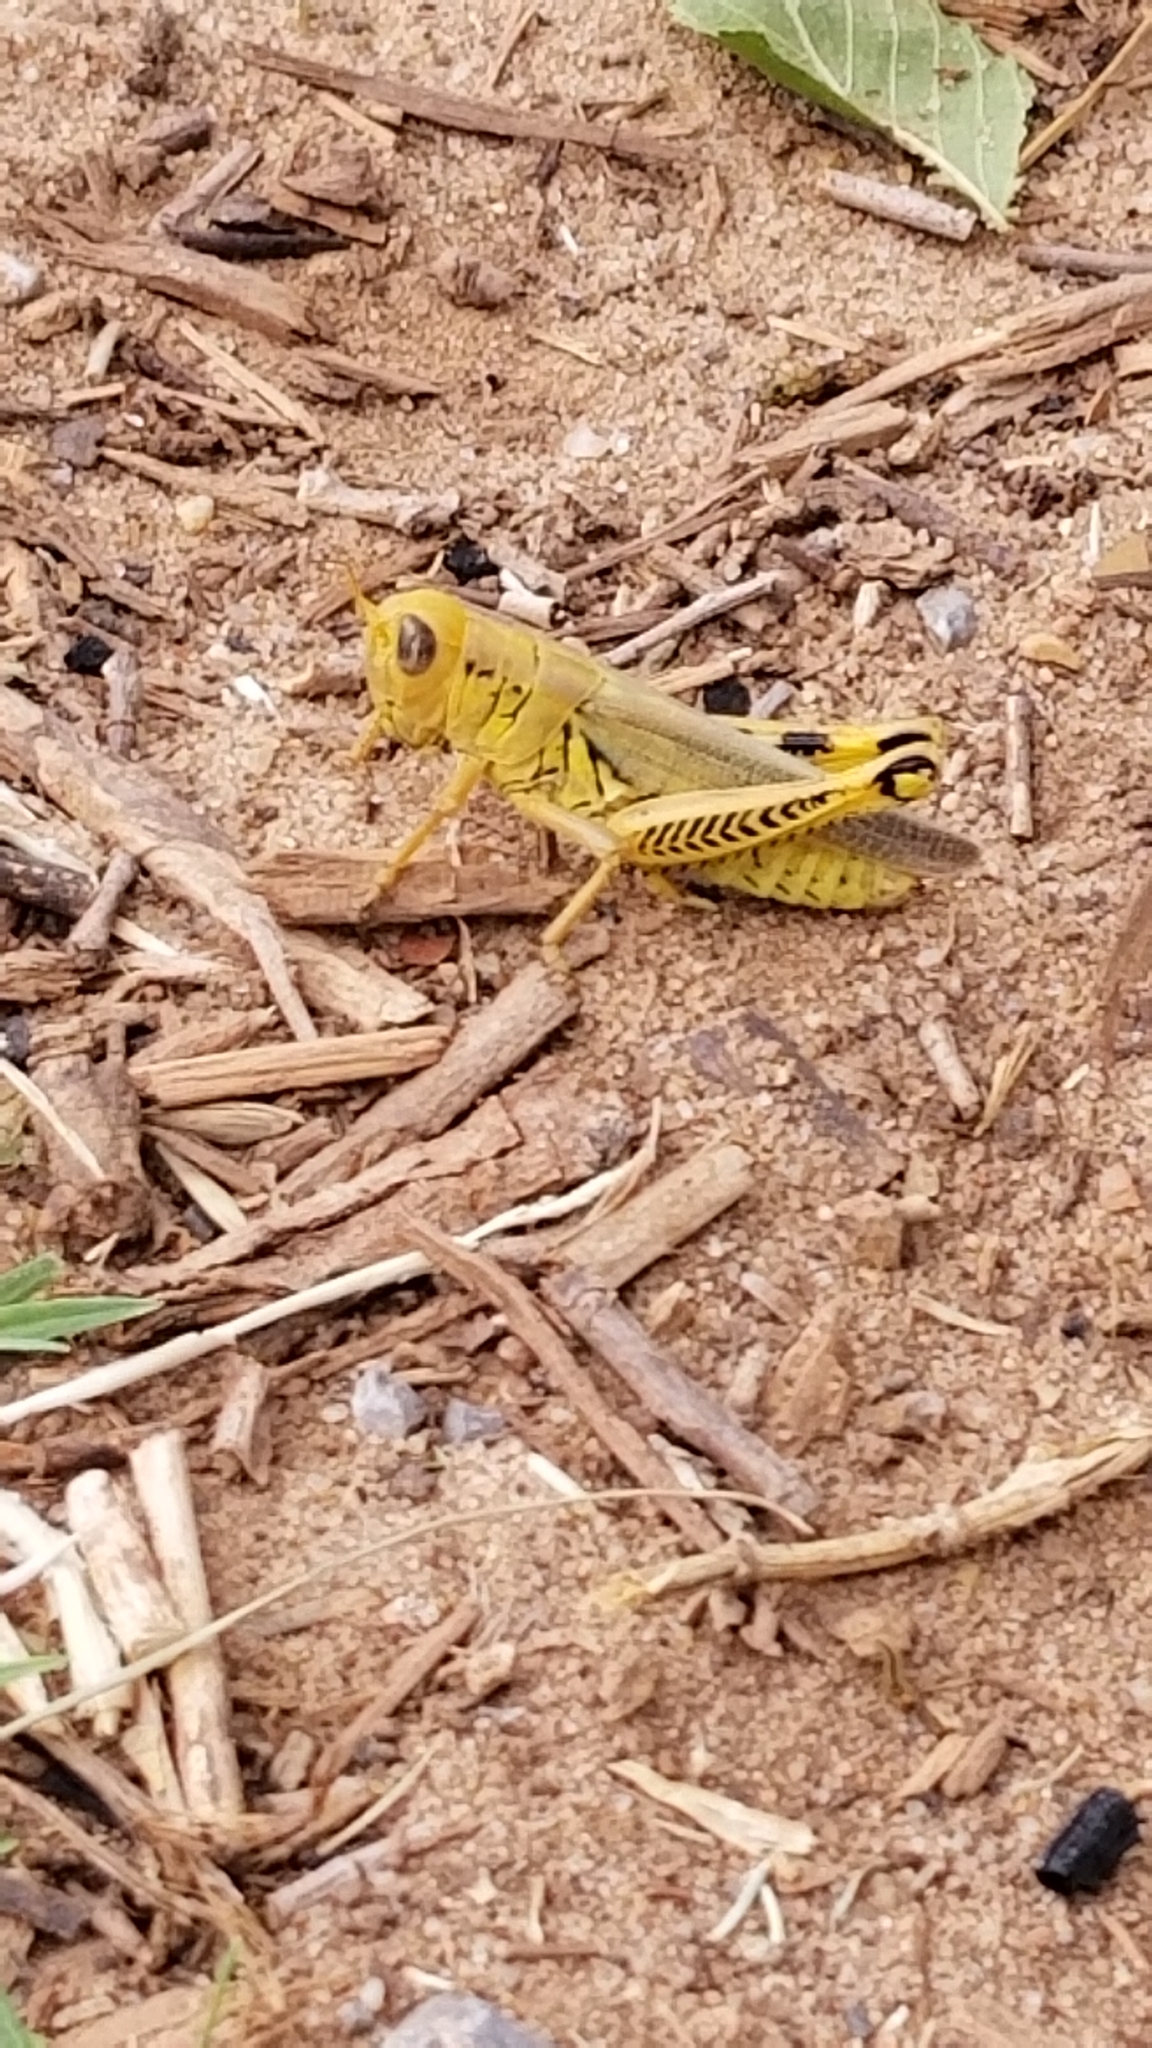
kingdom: Animalia
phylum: Arthropoda
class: Insecta
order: Orthoptera
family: Acrididae
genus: Melanoplus
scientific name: Melanoplus differentialis
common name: Differential grasshopper
